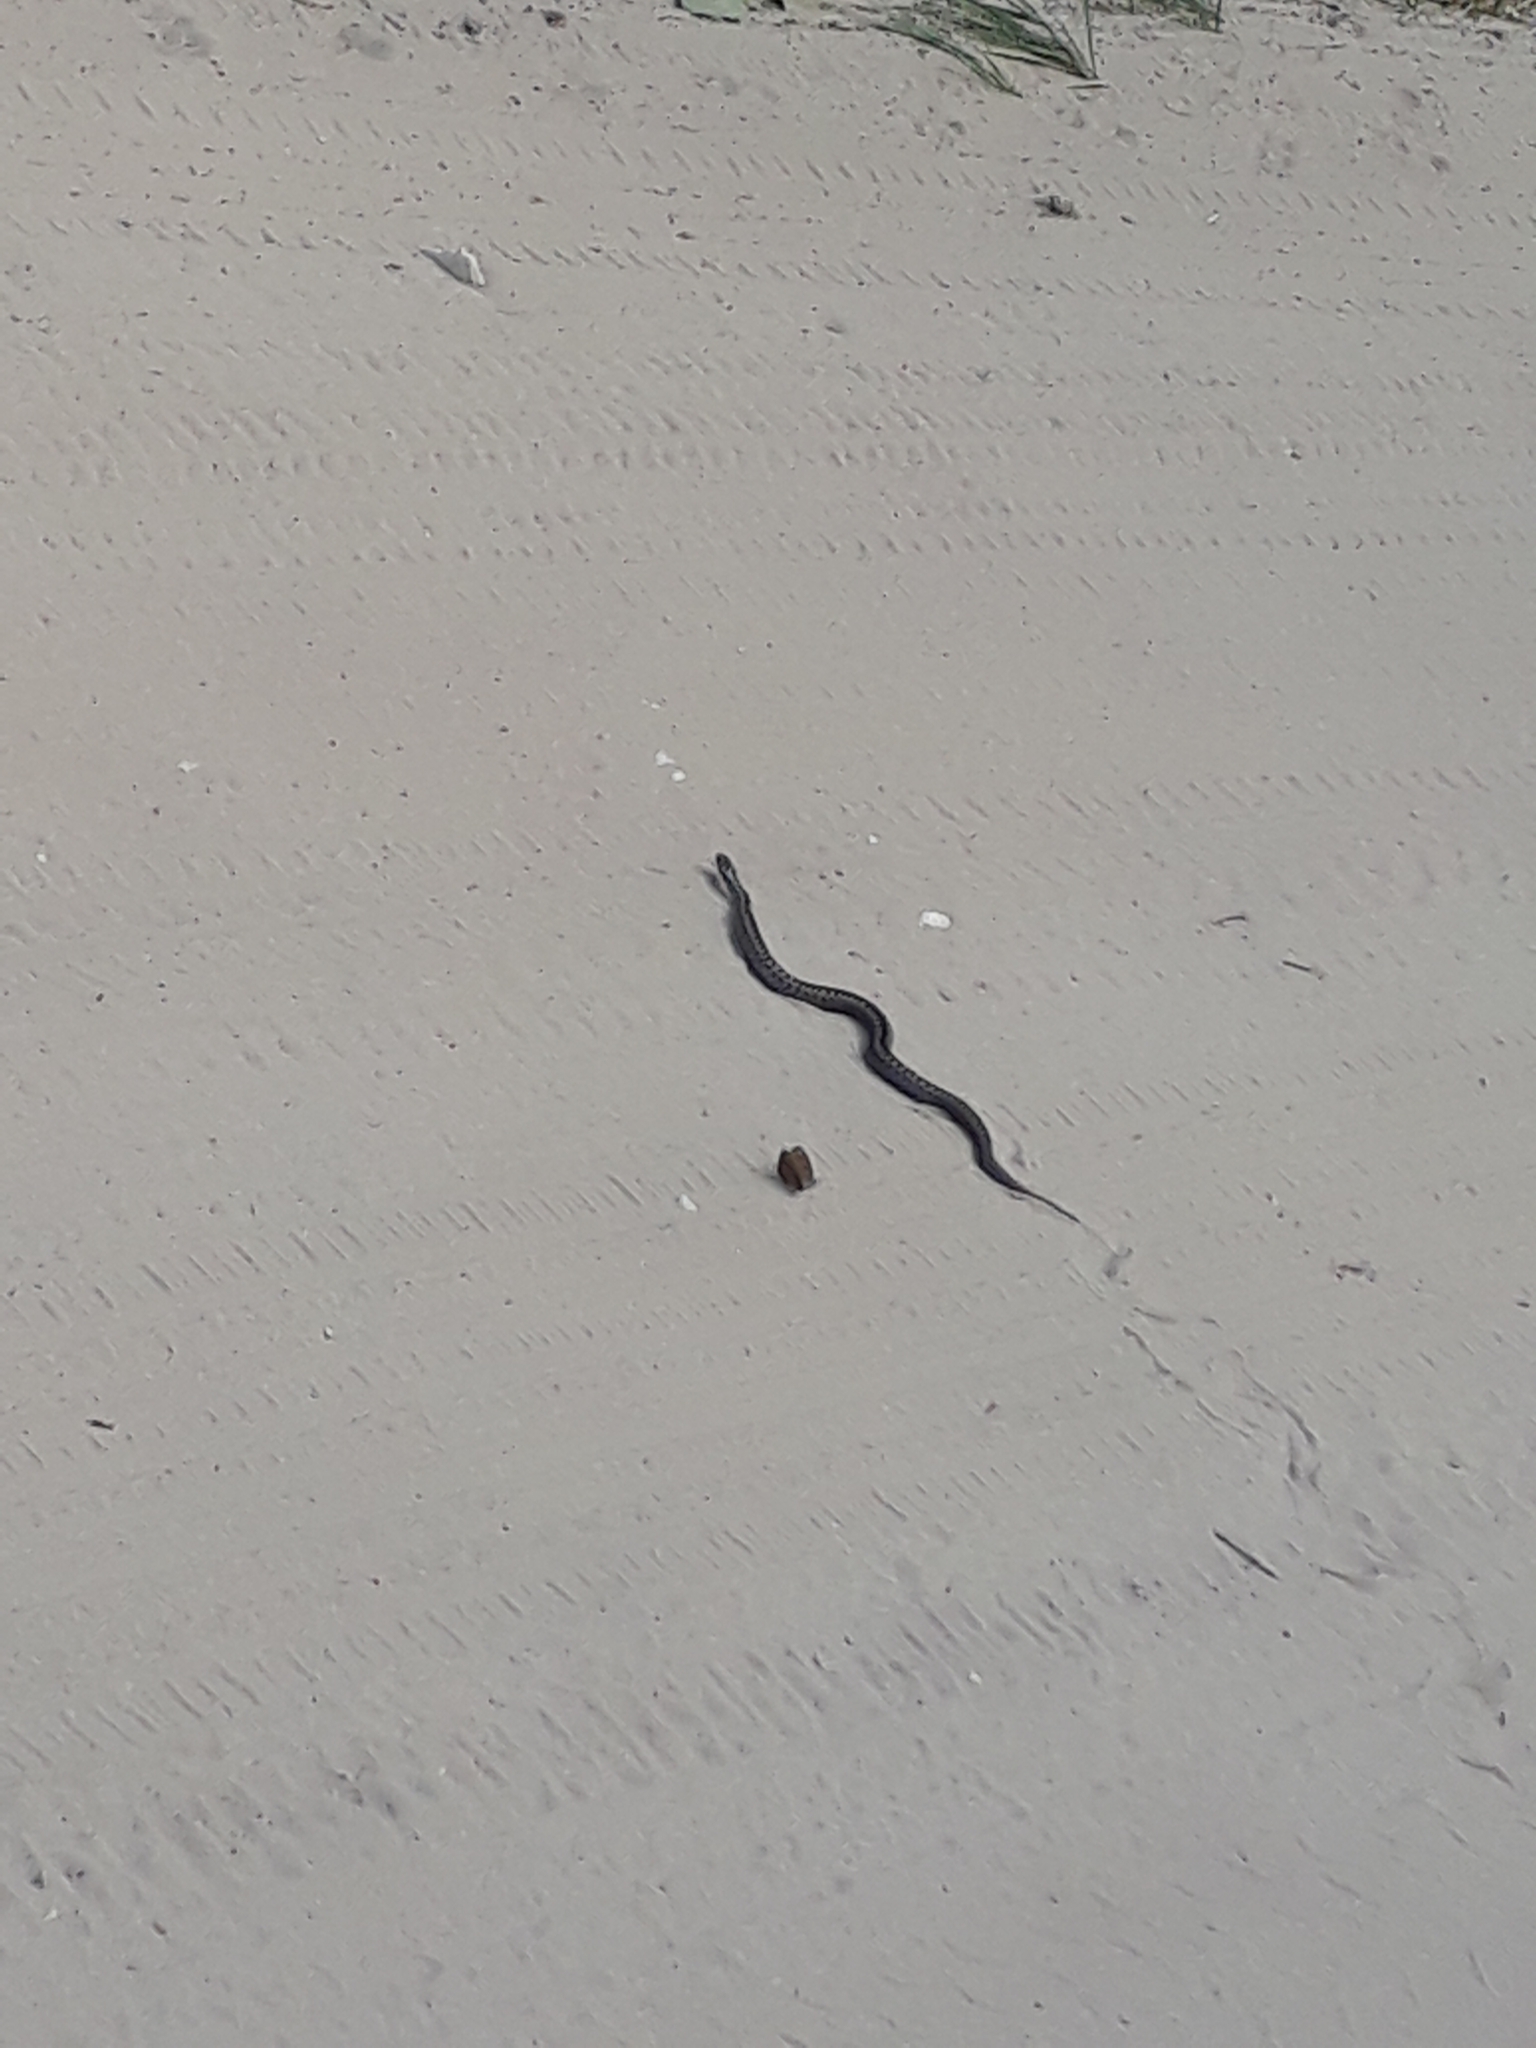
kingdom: Animalia
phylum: Chordata
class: Squamata
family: Viperidae
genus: Vipera
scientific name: Vipera berus
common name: Adder
